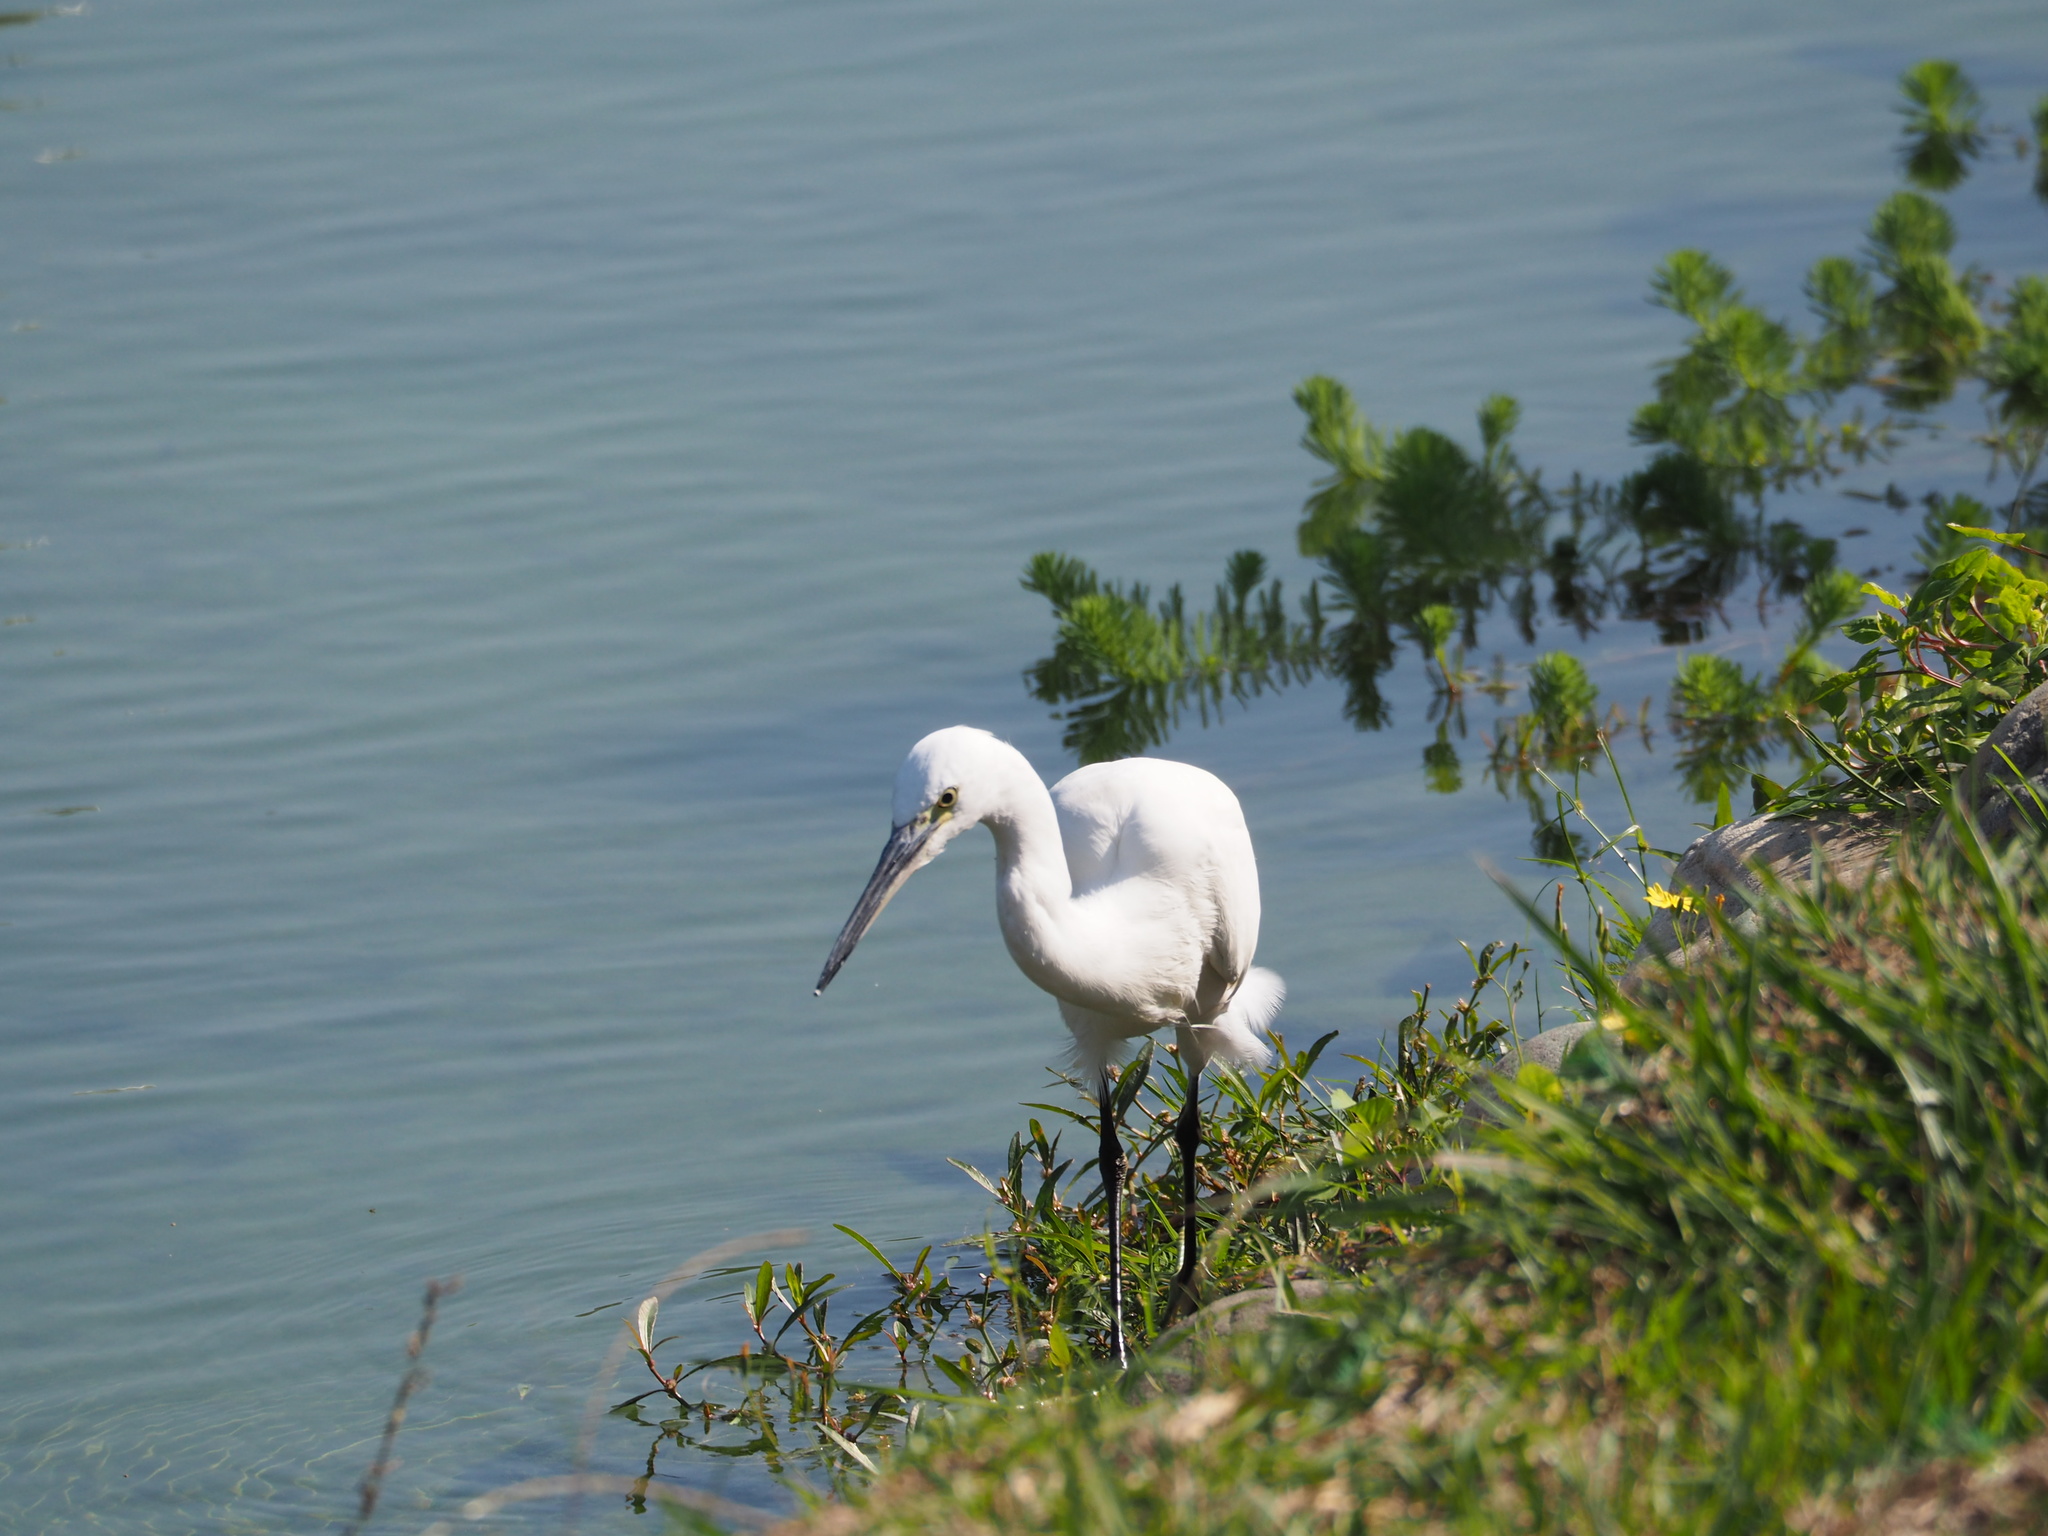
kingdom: Animalia
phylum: Chordata
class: Aves
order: Pelecaniformes
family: Ardeidae
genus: Egretta
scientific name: Egretta garzetta
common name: Little egret
